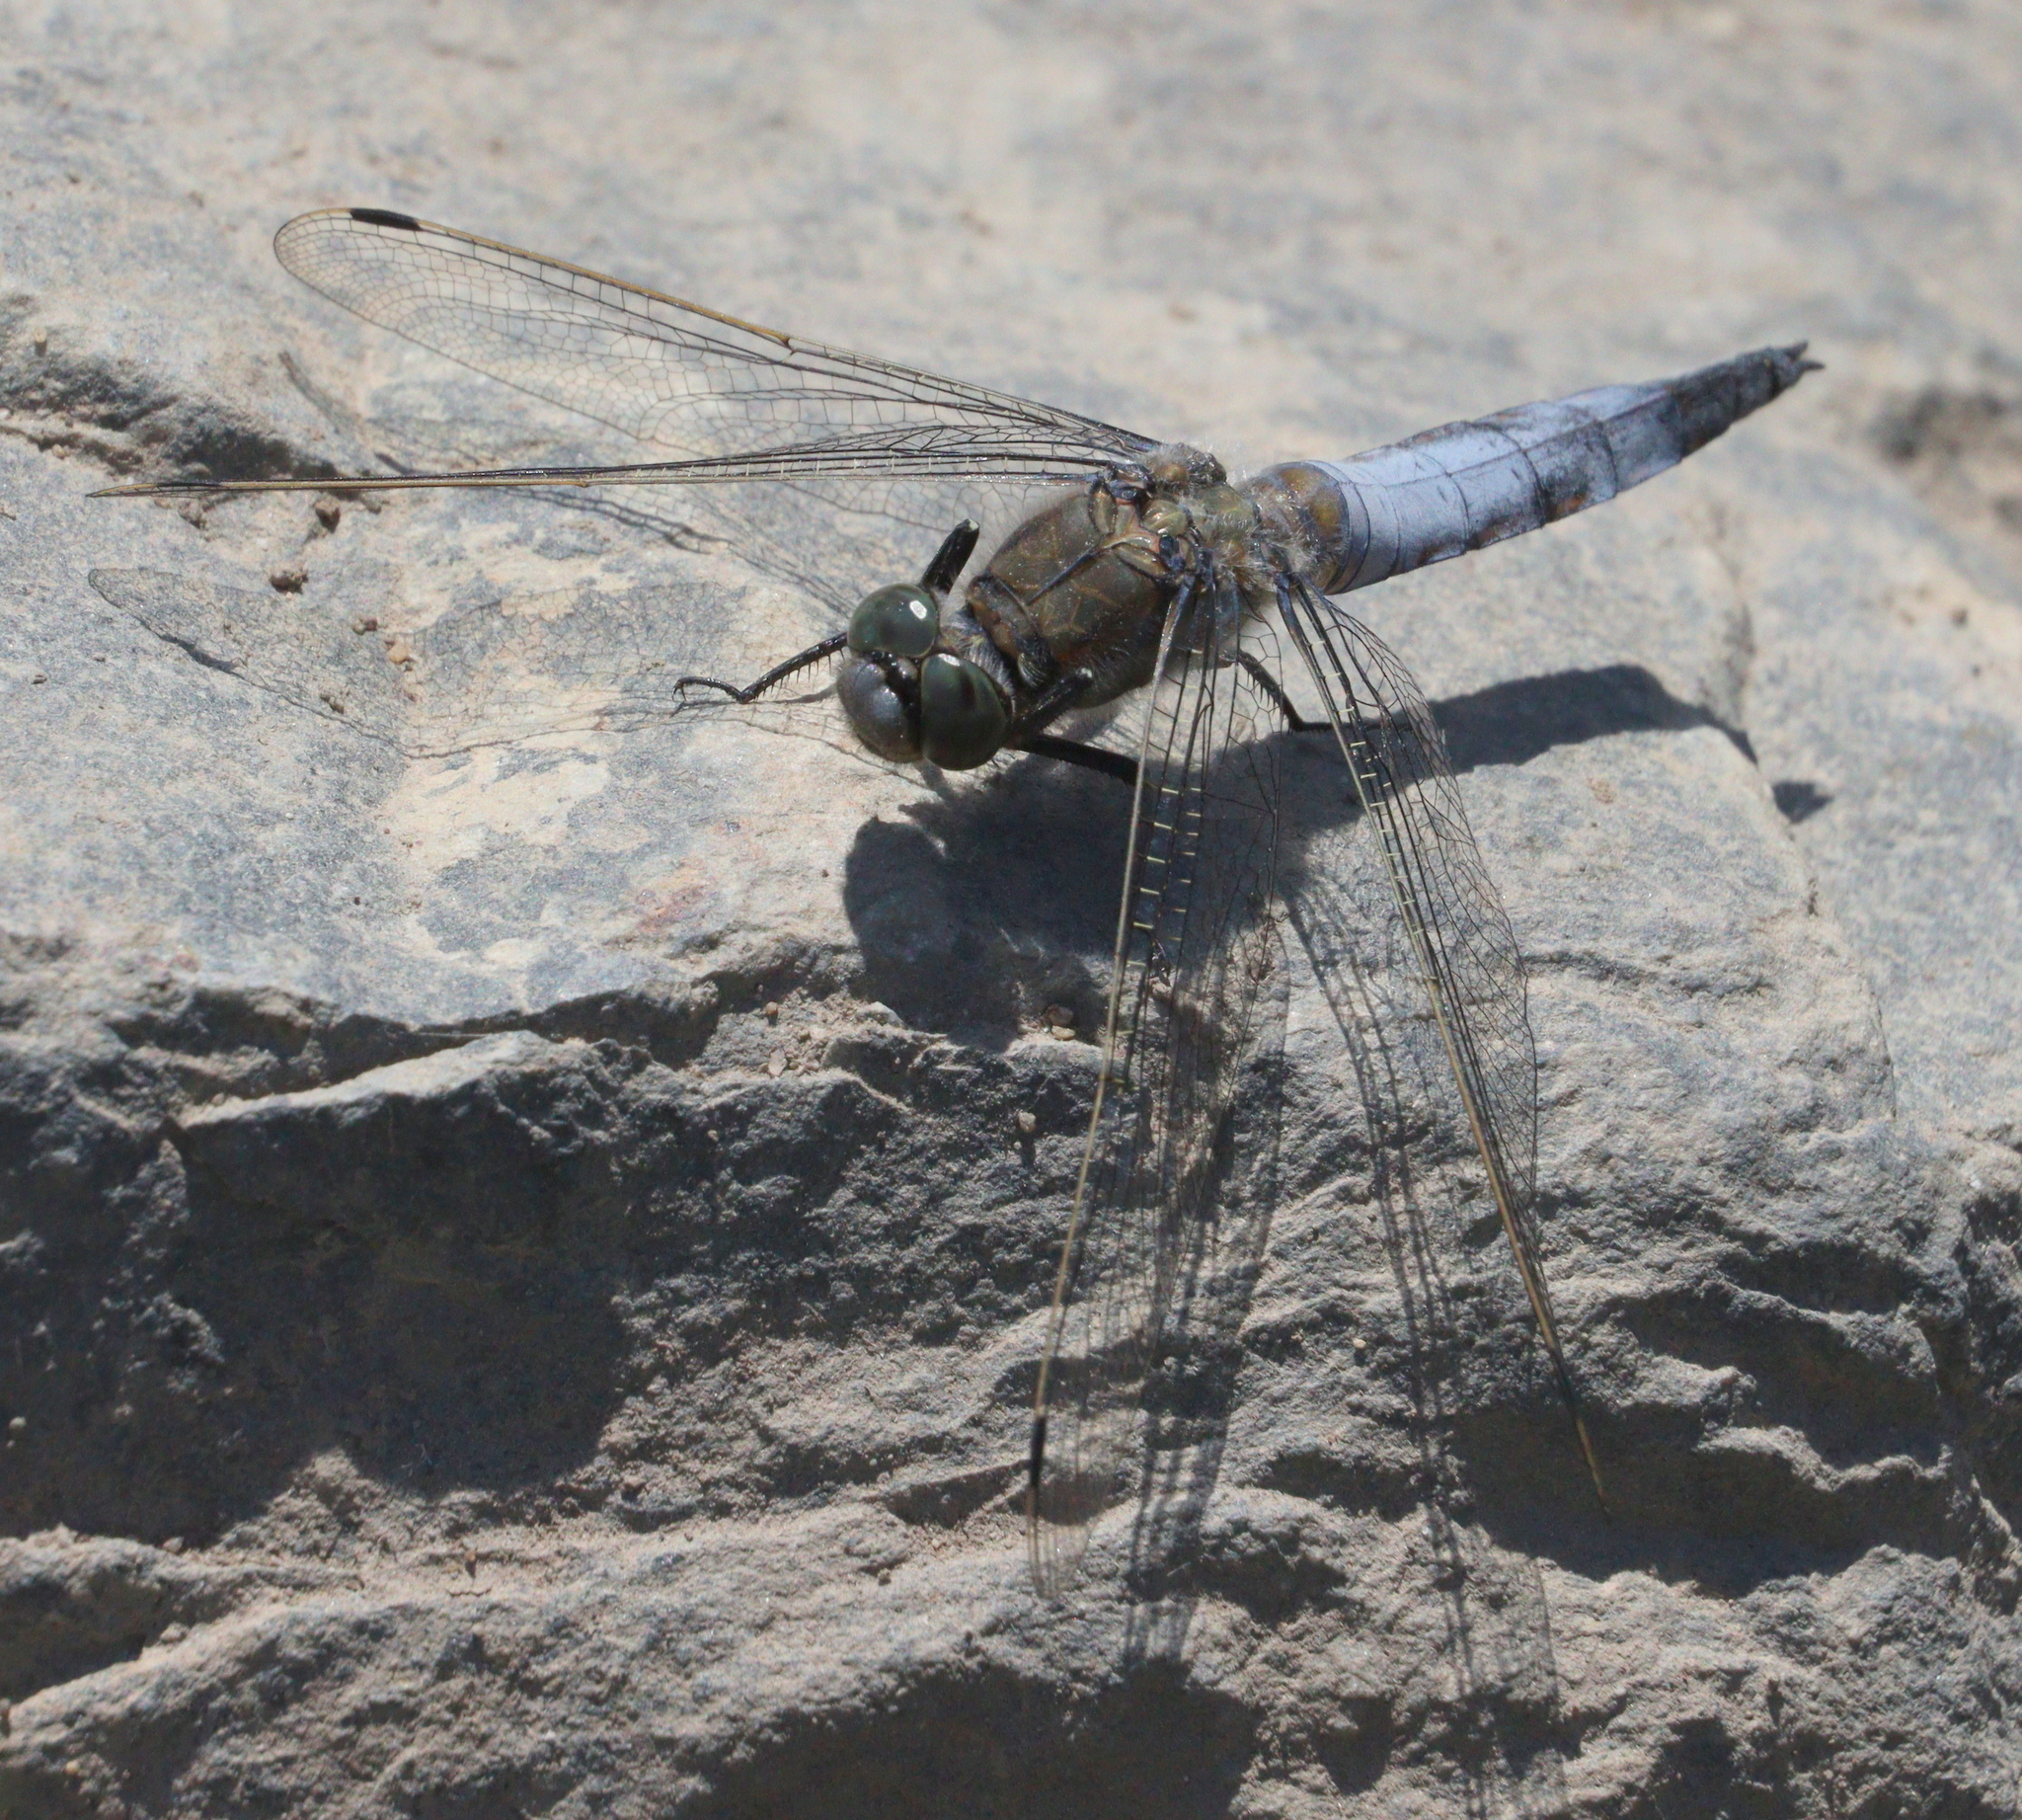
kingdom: Animalia
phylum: Arthropoda
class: Insecta
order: Odonata
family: Libellulidae
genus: Orthetrum
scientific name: Orthetrum cancellatum
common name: Black-tailed skimmer
